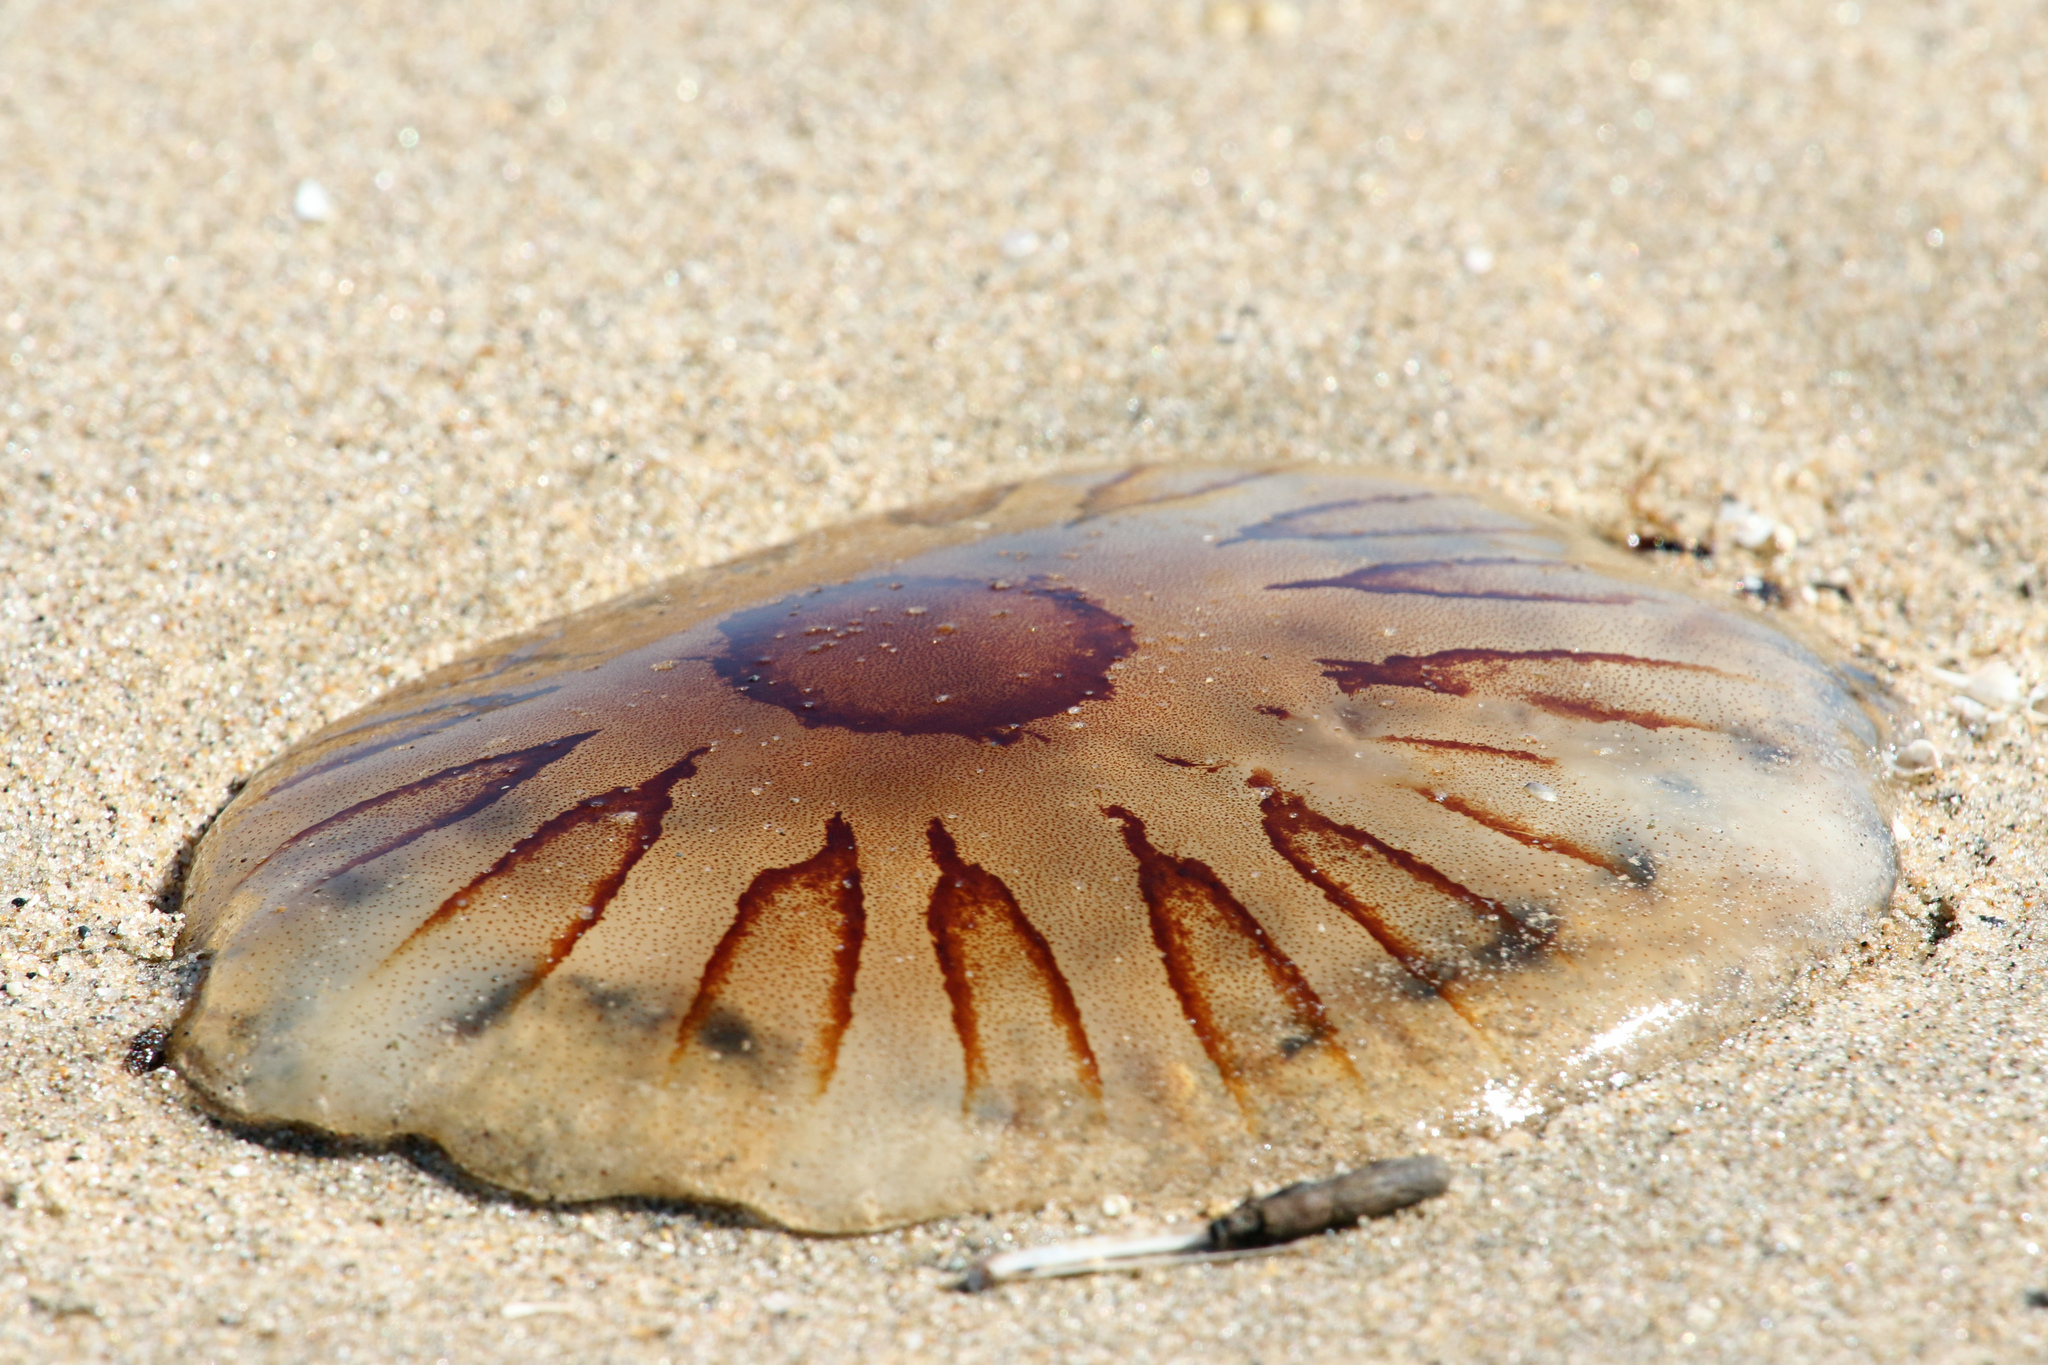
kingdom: Animalia
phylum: Cnidaria
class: Scyphozoa
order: Semaeostomeae
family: Pelagiidae
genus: Chrysaora
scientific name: Chrysaora hysoscella
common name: Compass jellyfish
